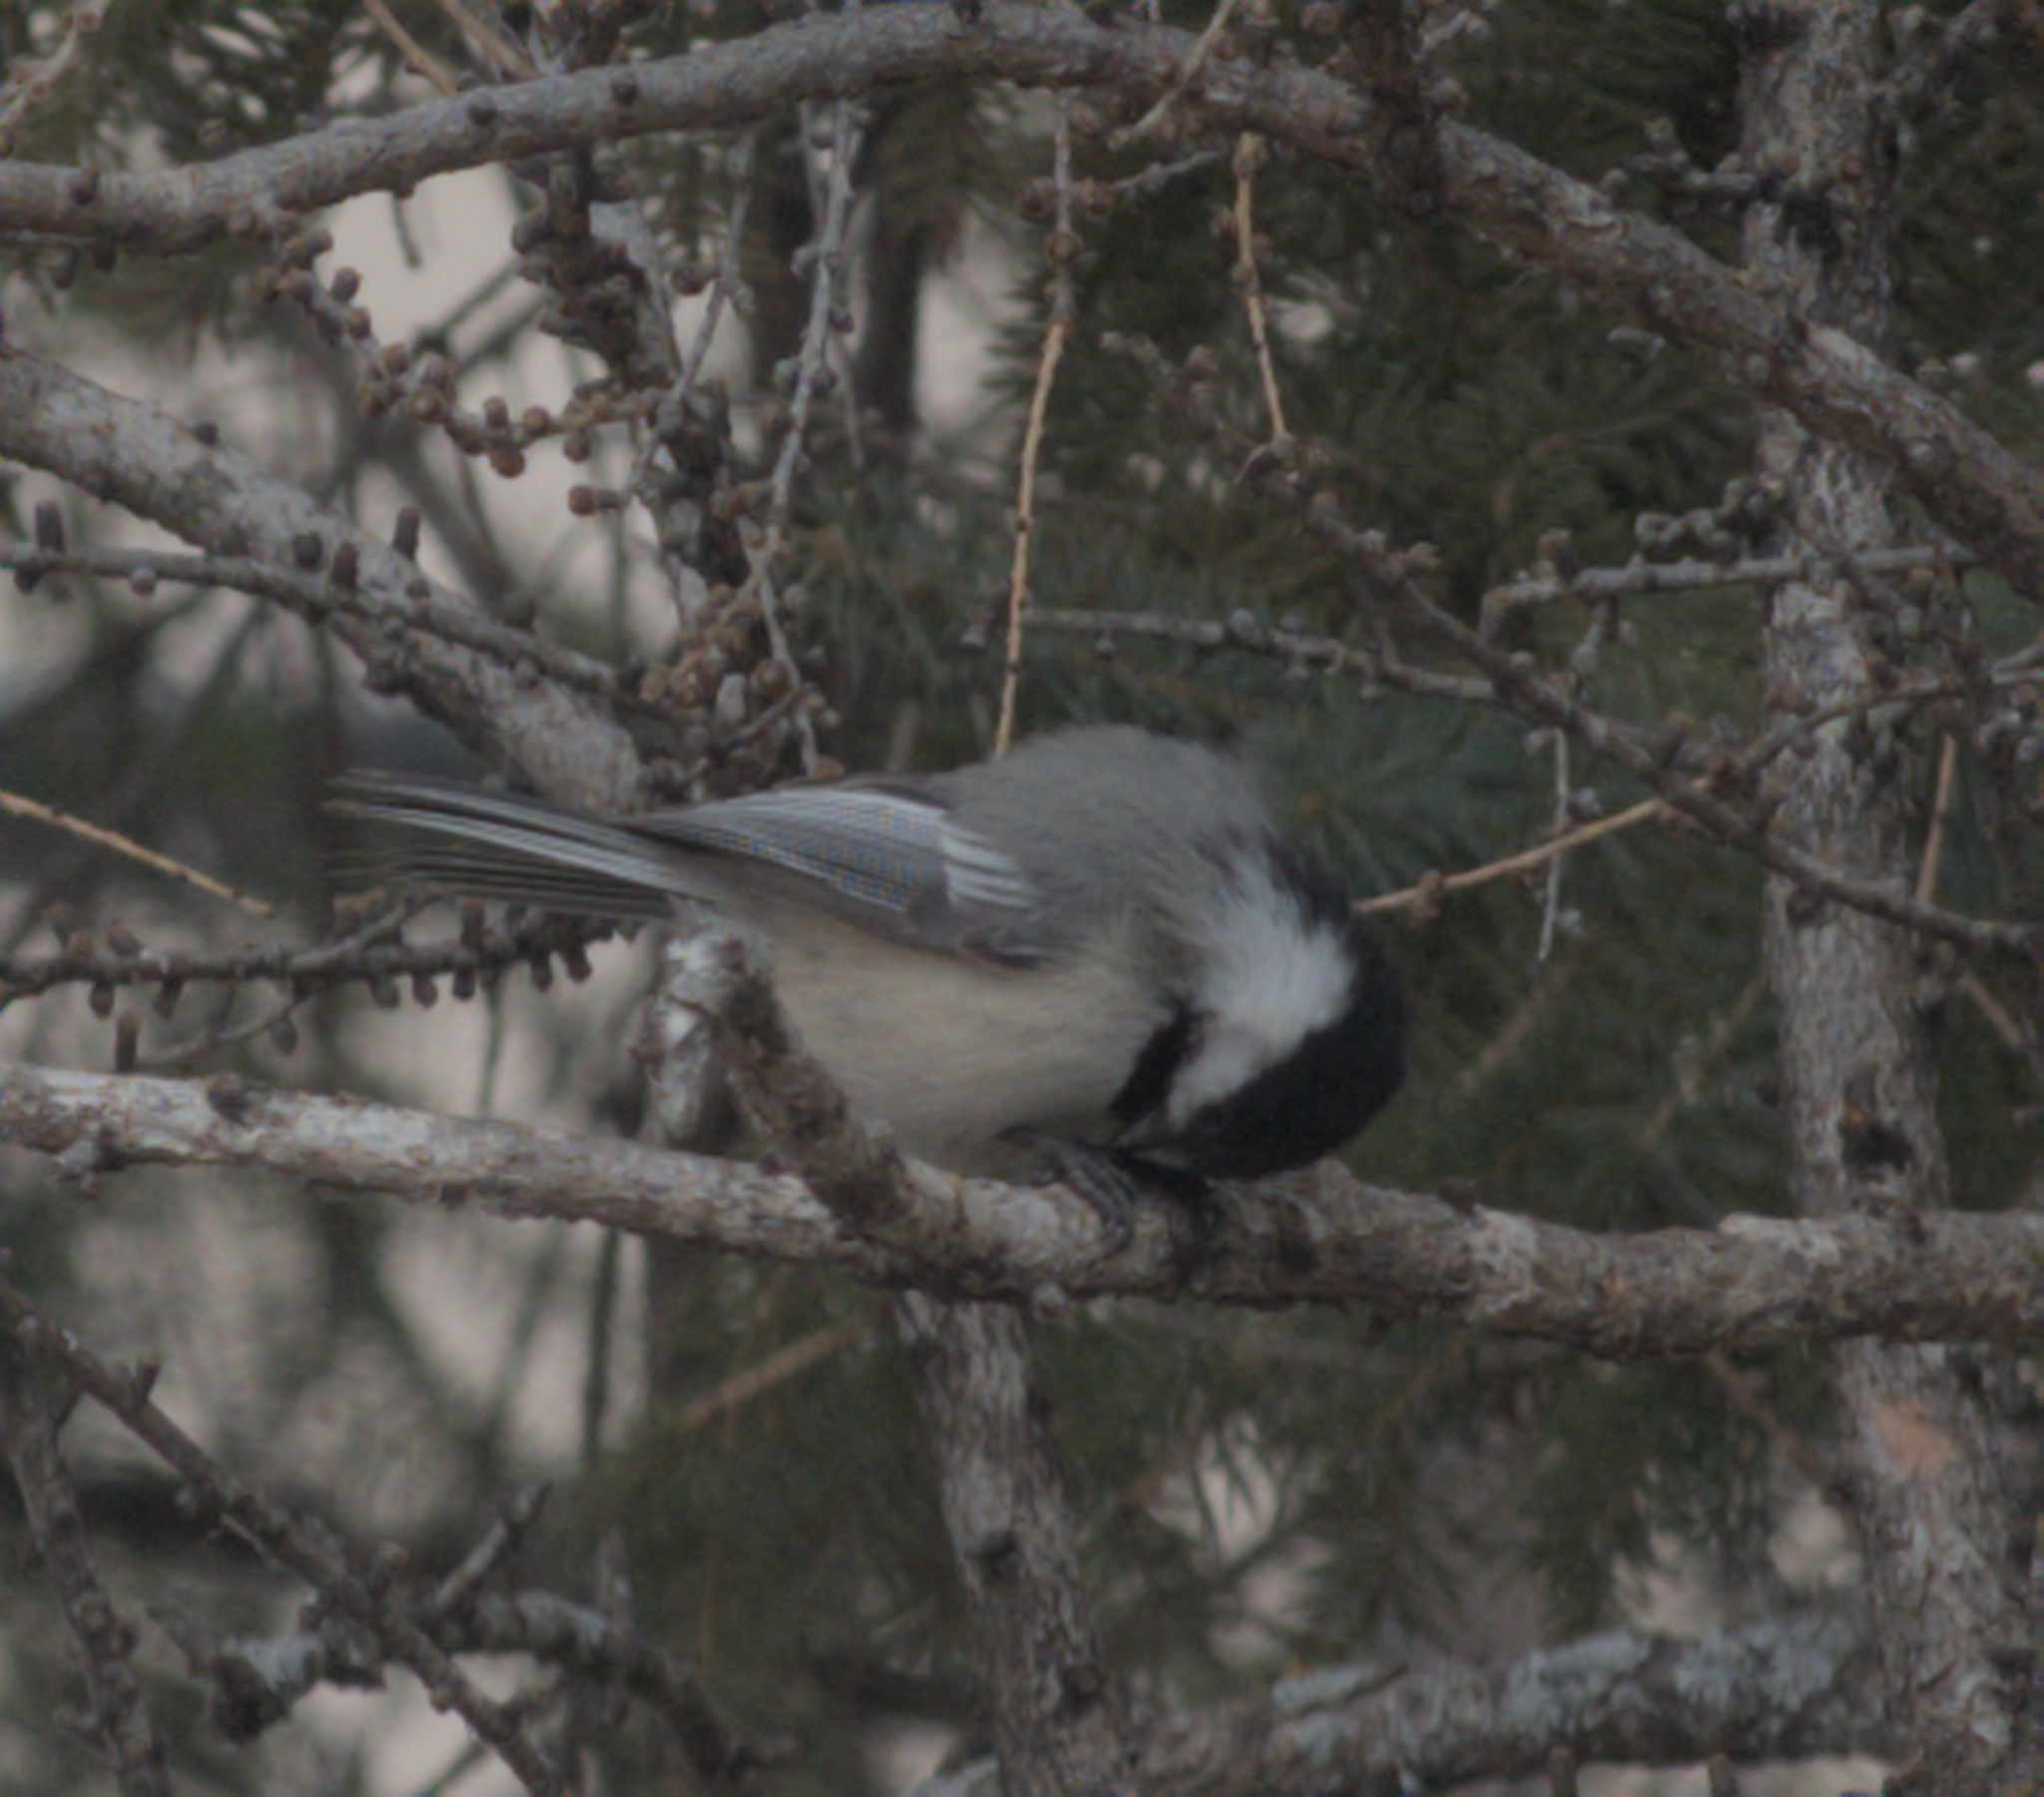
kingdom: Animalia
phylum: Chordata
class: Aves
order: Passeriformes
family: Paridae
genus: Poecile
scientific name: Poecile atricapillus
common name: Black-capped chickadee
